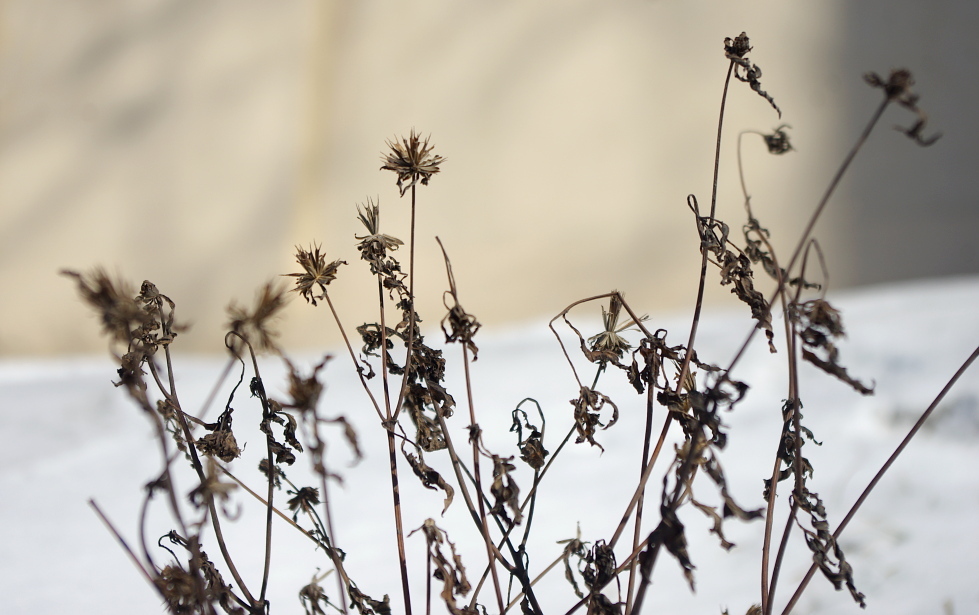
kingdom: Plantae
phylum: Tracheophyta
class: Magnoliopsida
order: Asterales
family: Asteraceae
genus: Bidens
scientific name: Bidens frondosa
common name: Beggarticks
